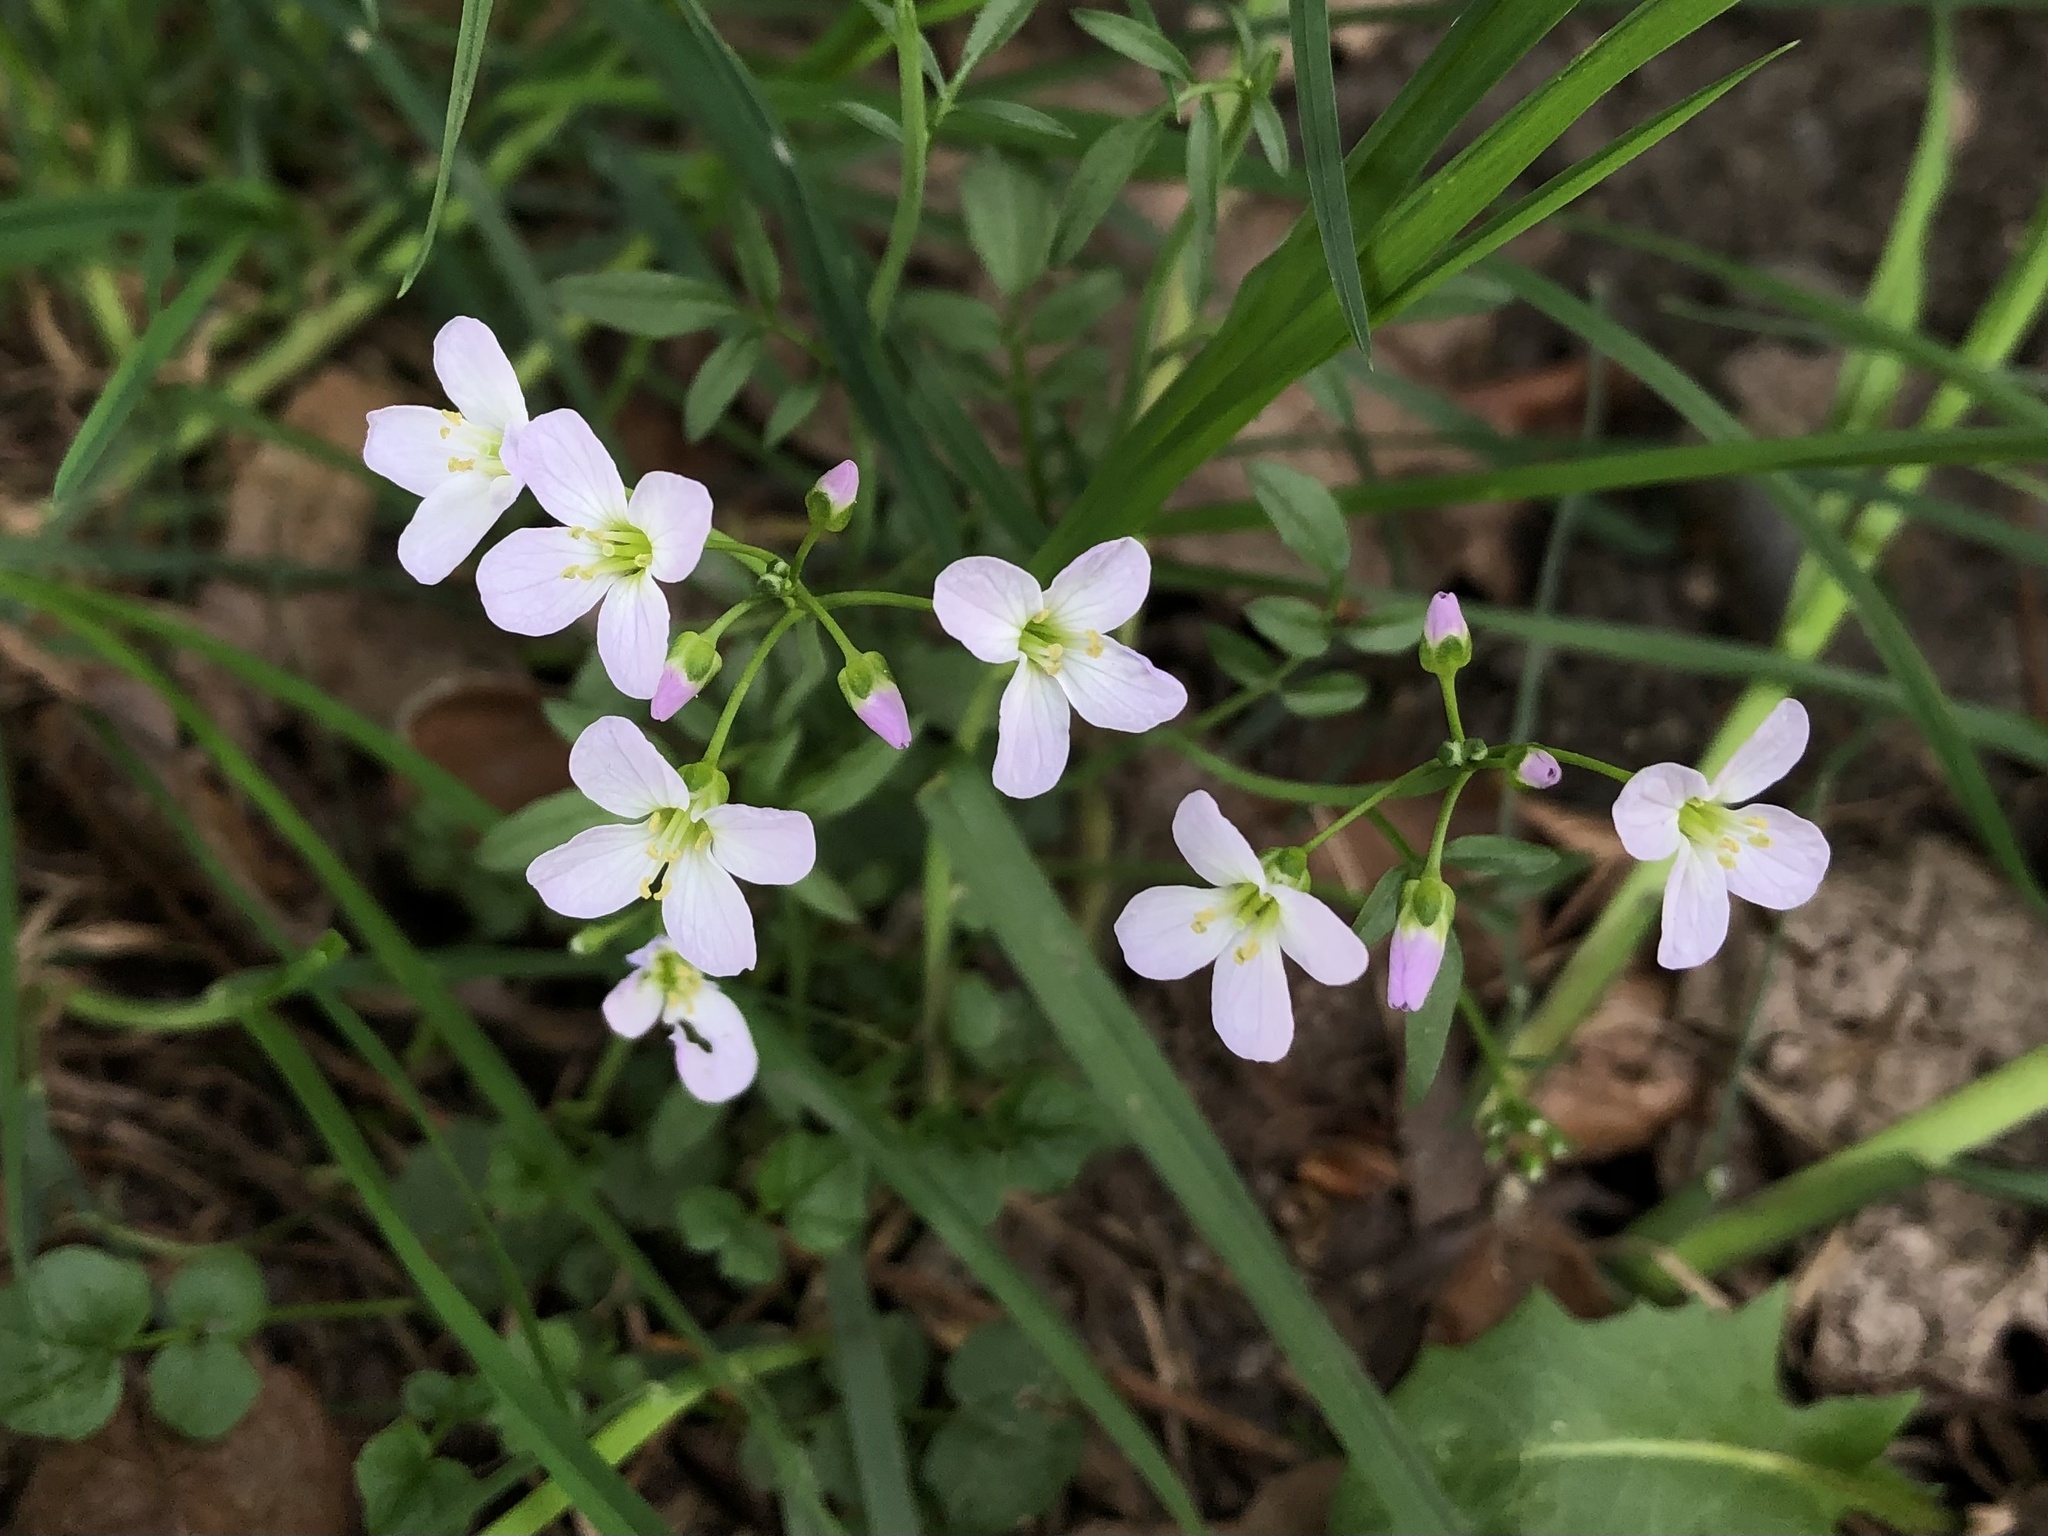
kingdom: Plantae
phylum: Tracheophyta
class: Magnoliopsida
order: Brassicales
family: Brassicaceae
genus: Cardamine
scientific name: Cardamine pratensis
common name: Cuckoo flower
